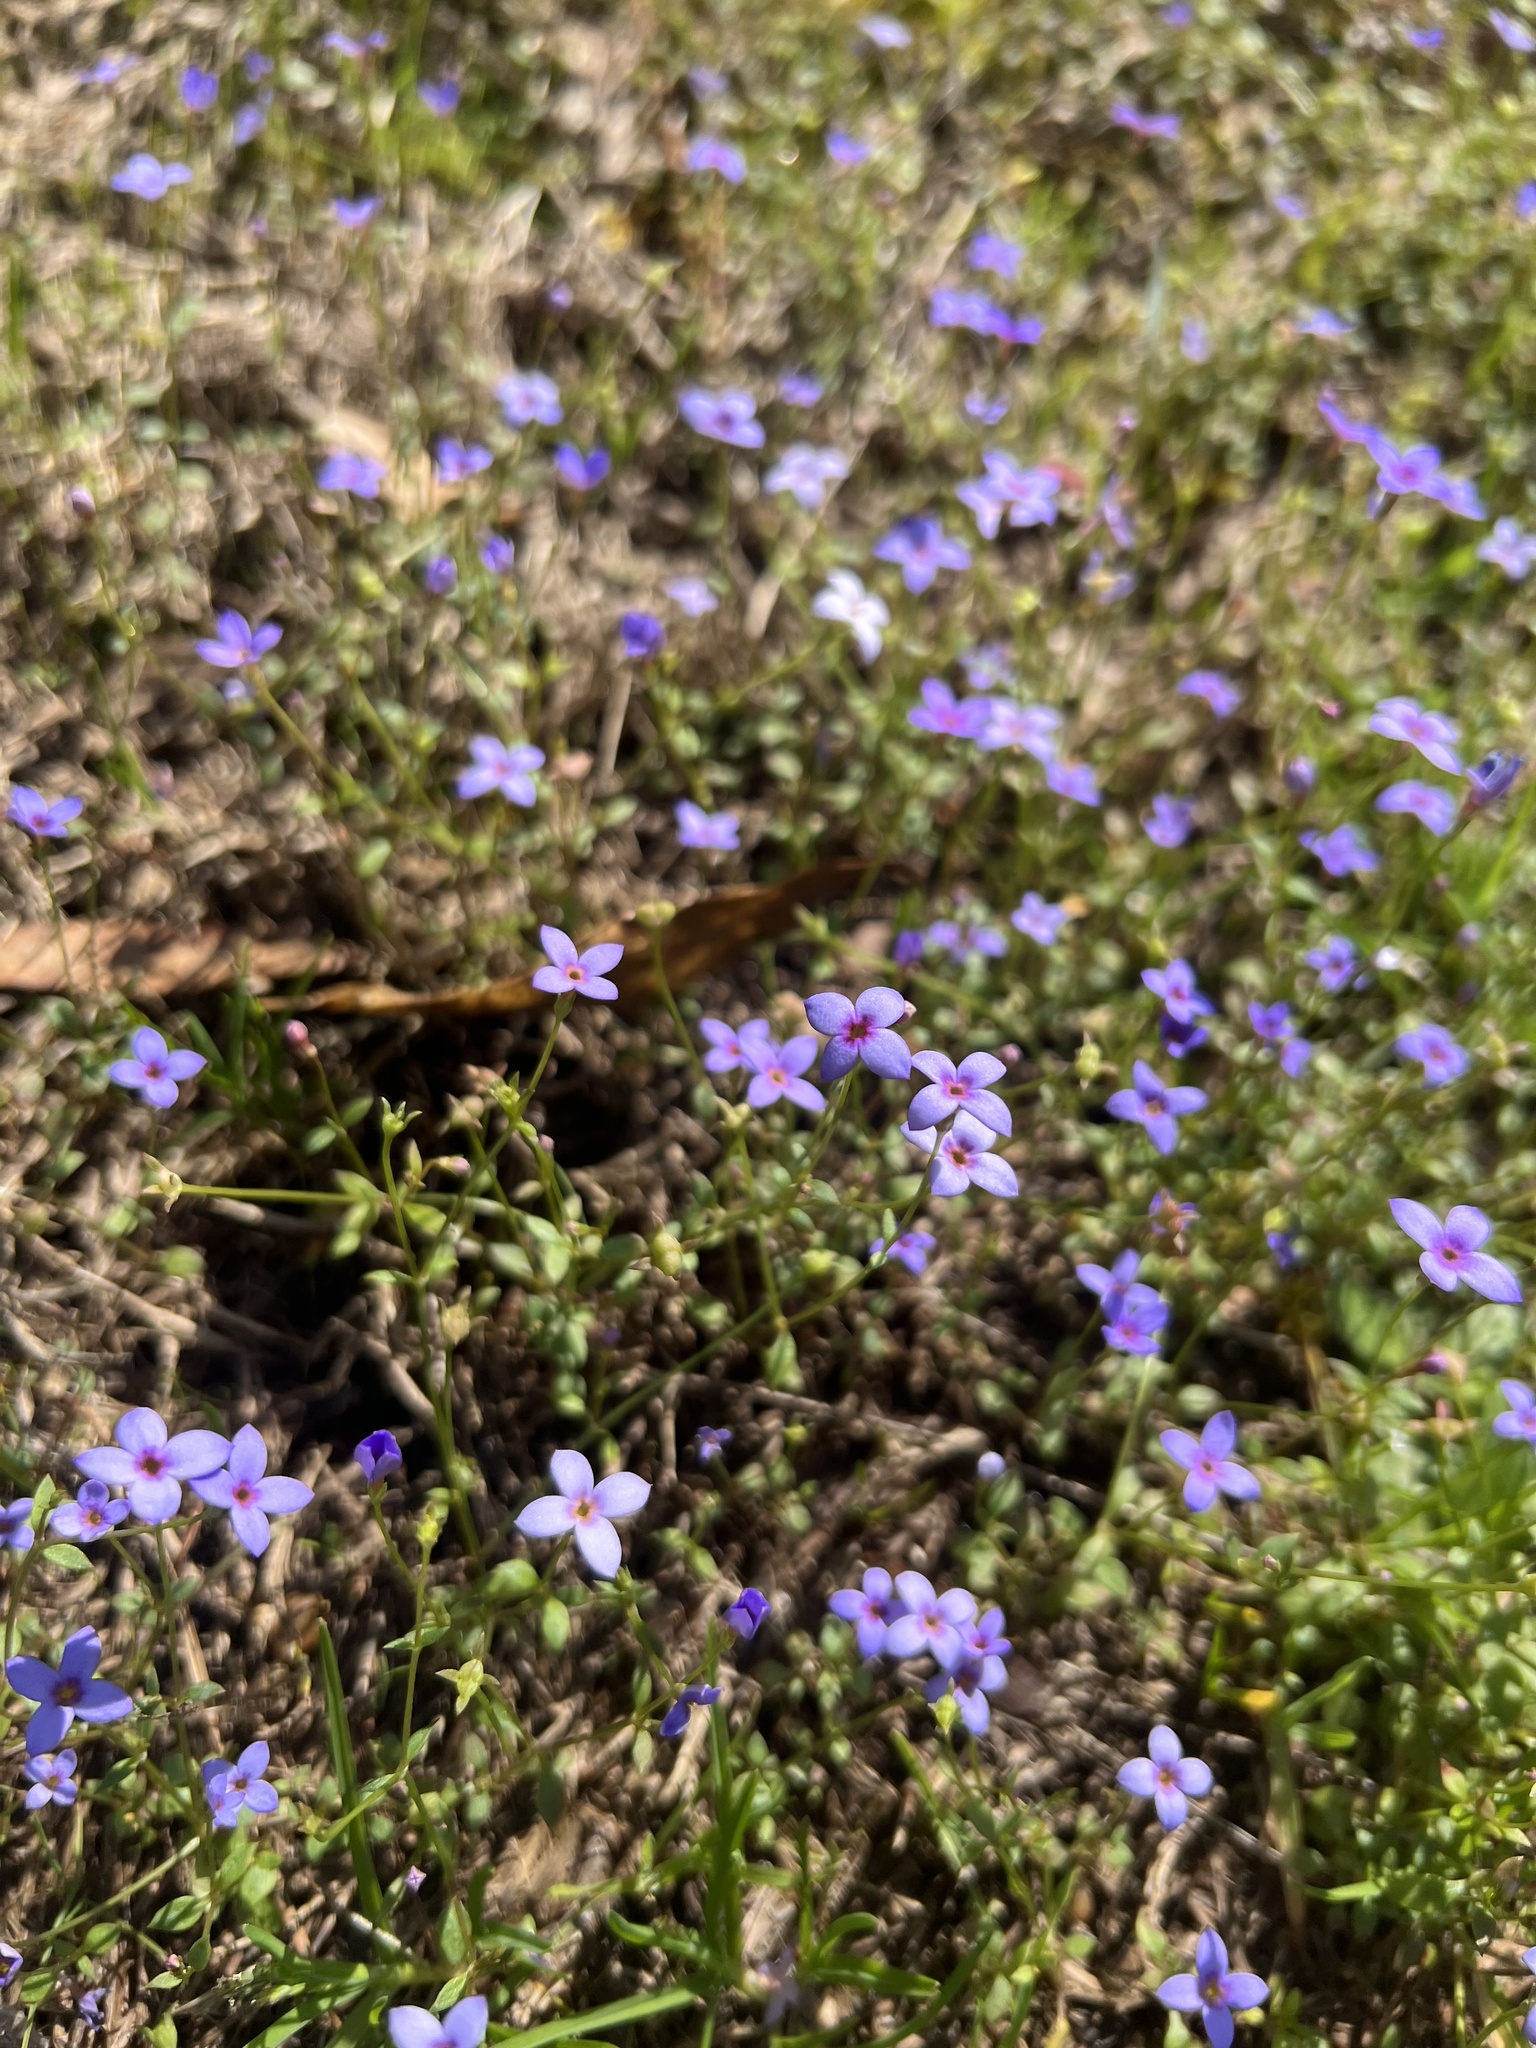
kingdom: Plantae
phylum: Tracheophyta
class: Magnoliopsida
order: Gentianales
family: Rubiaceae
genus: Houstonia
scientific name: Houstonia pusilla
